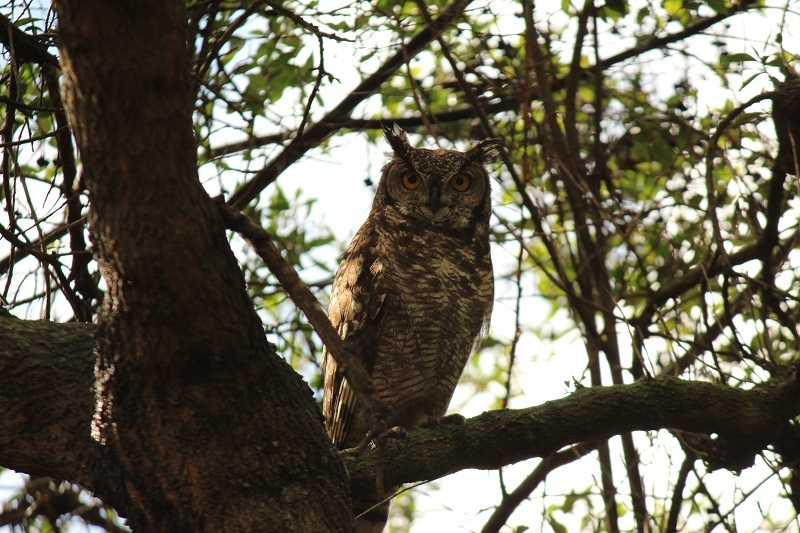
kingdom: Animalia
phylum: Chordata
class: Aves
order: Strigiformes
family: Strigidae
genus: Bubo
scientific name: Bubo africanus
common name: Spotted eagle-owl
